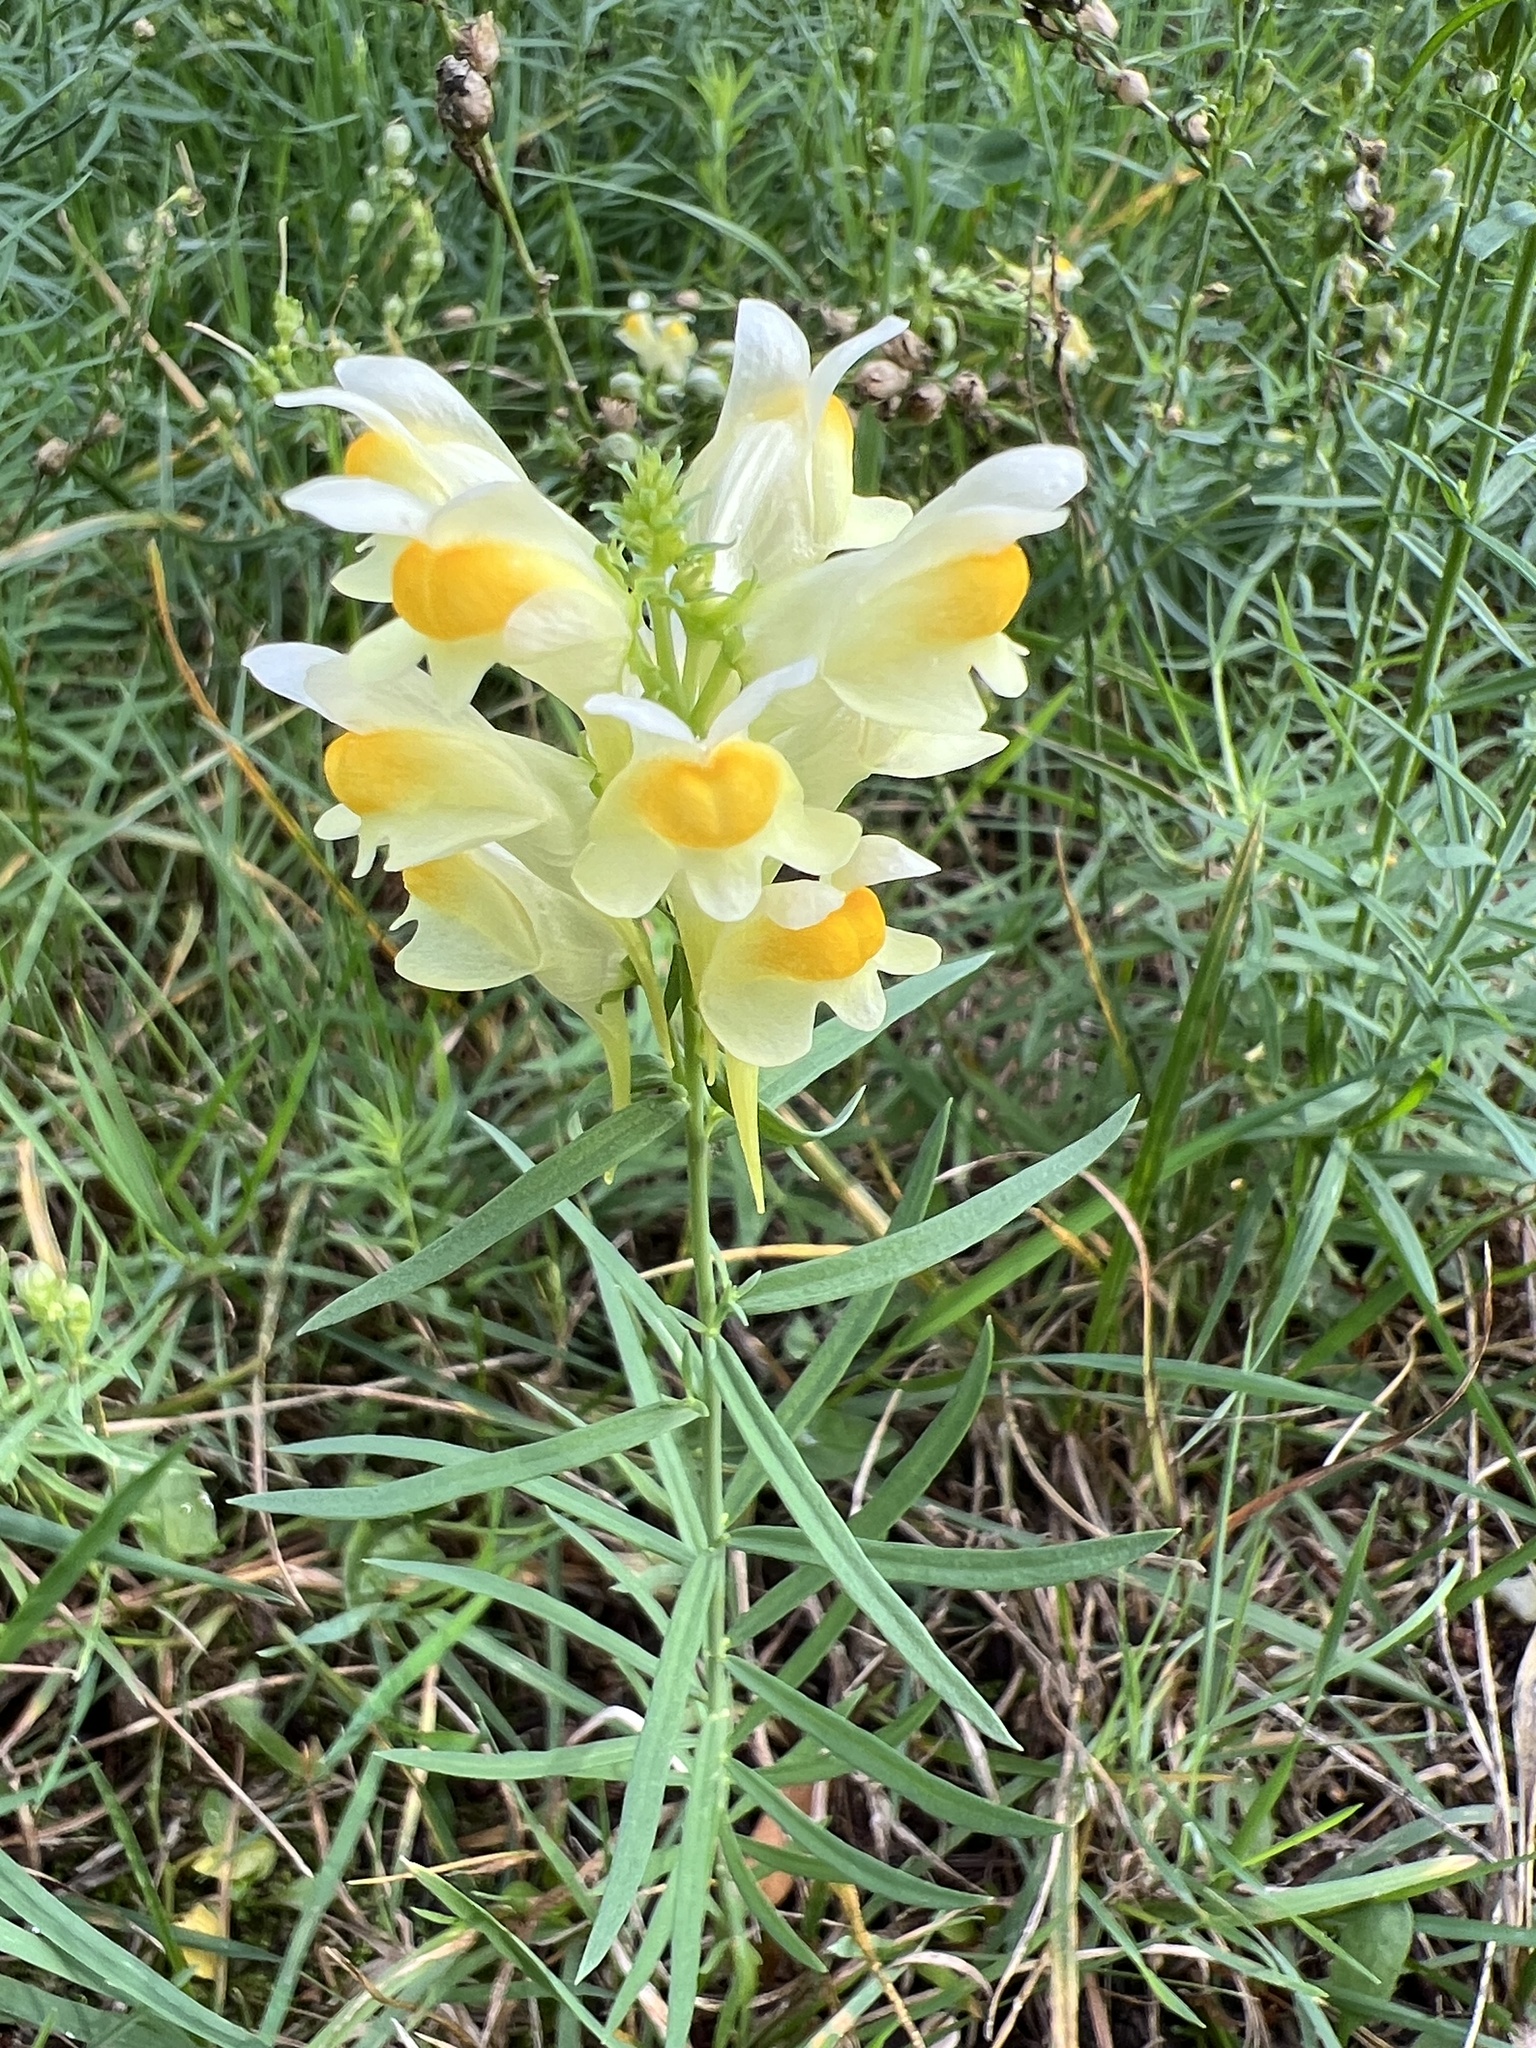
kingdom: Plantae
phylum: Tracheophyta
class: Magnoliopsida
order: Lamiales
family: Plantaginaceae
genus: Linaria
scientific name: Linaria vulgaris
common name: Butter and eggs
